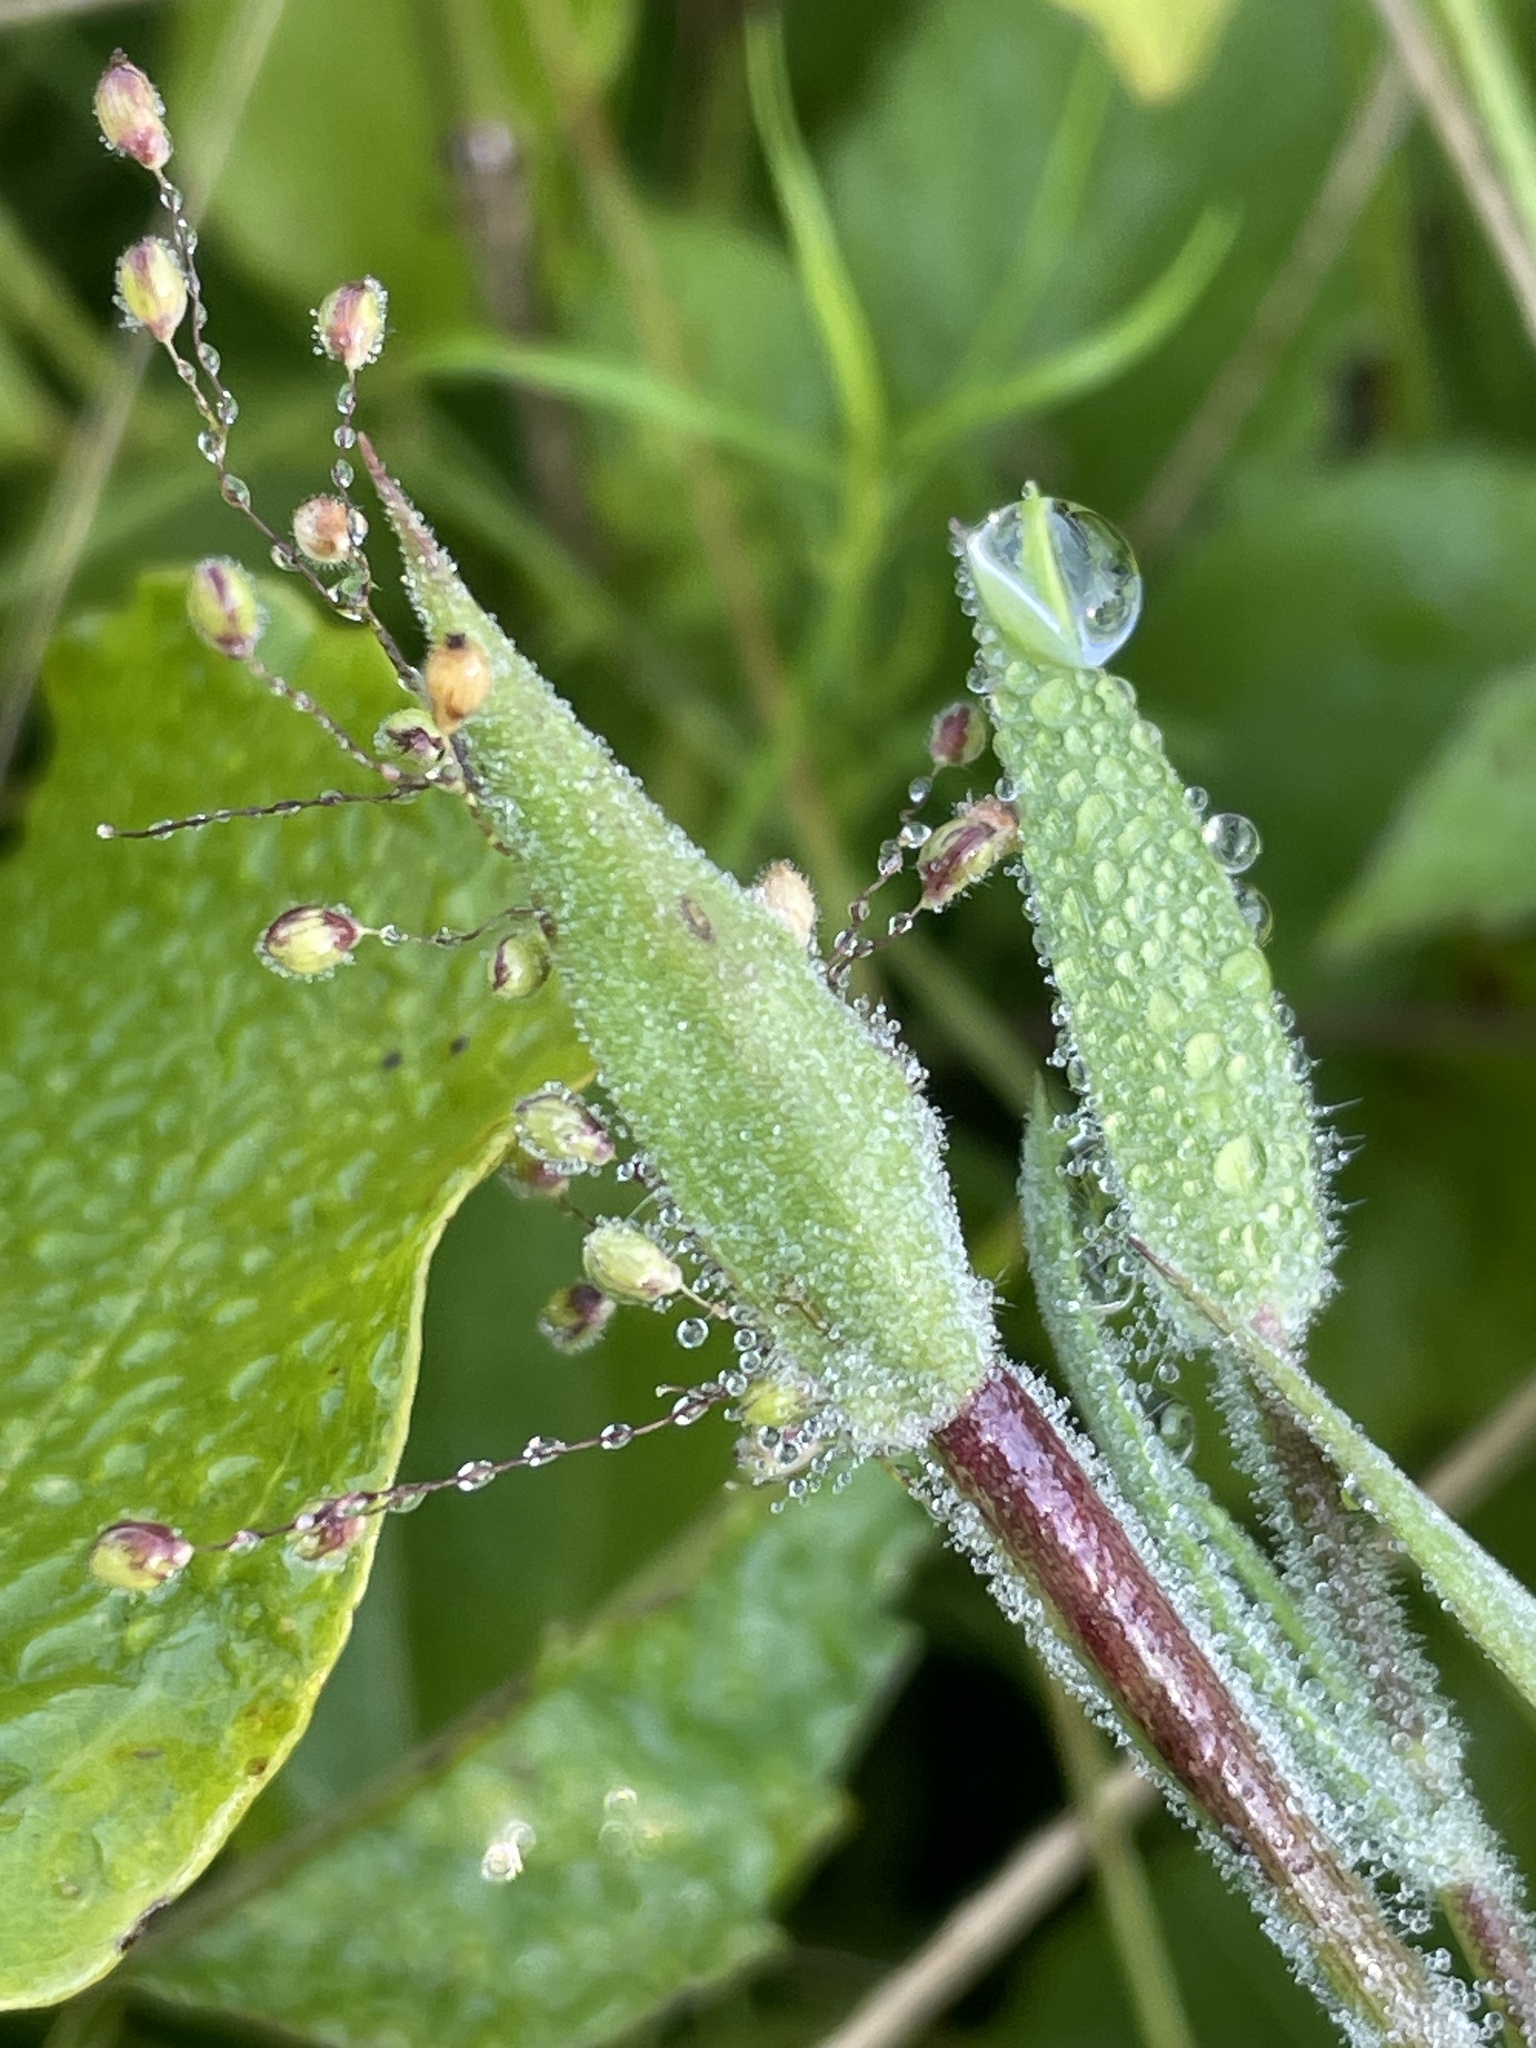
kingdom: Plantae
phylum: Tracheophyta
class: Liliopsida
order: Poales
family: Poaceae
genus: Dichanthelium
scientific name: Dichanthelium scoparium
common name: Velvety panic grass
